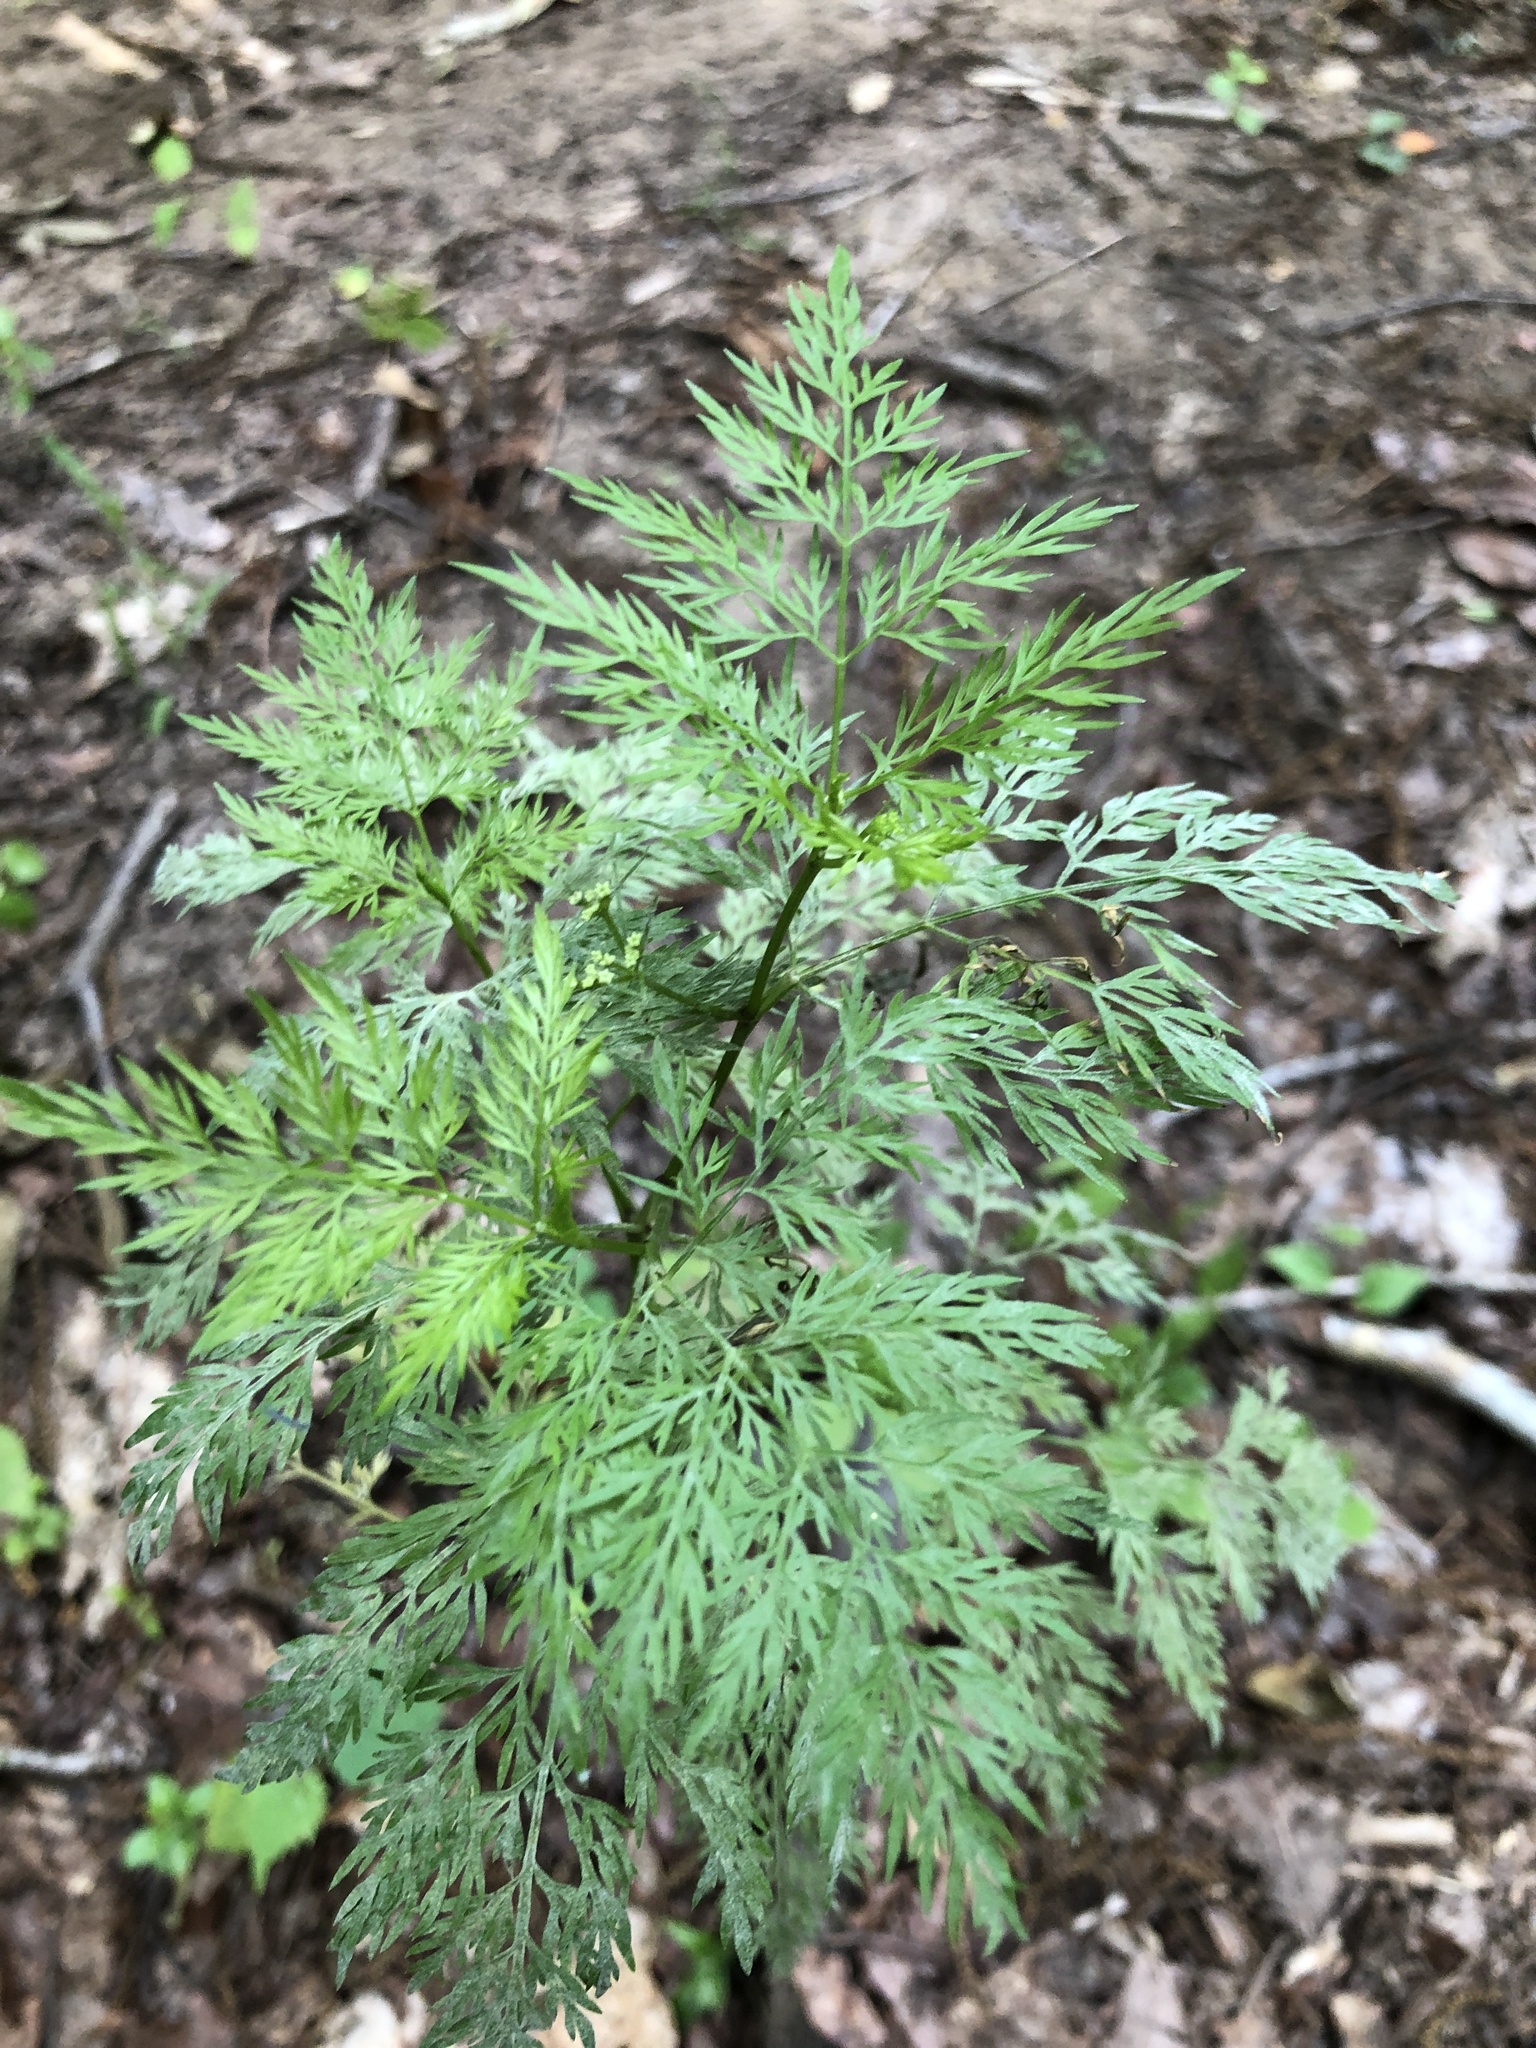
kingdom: Plantae
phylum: Tracheophyta
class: Magnoliopsida
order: Apiales
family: Apiaceae
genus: Trepocarpus
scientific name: Trepocarpus aethusae
